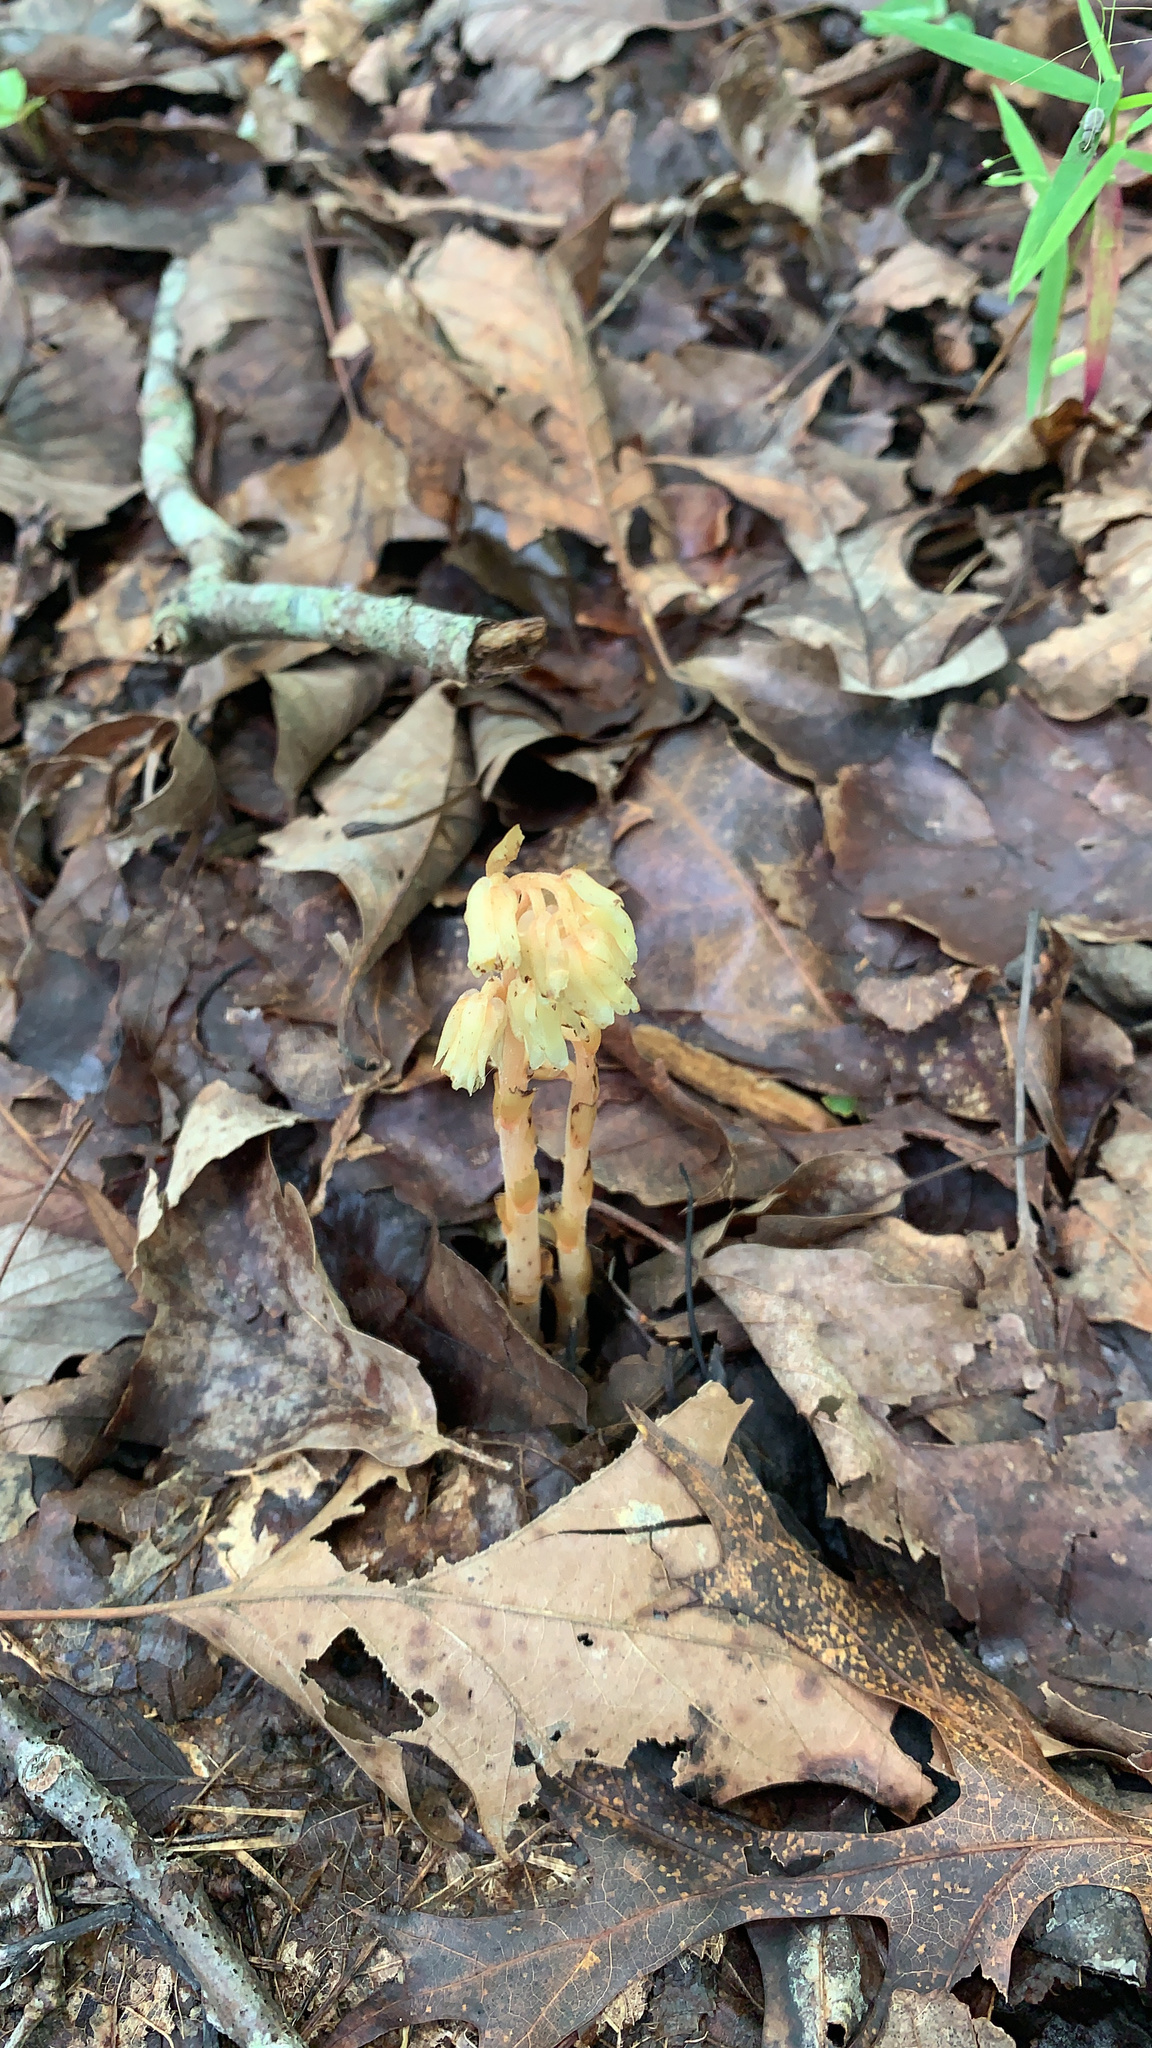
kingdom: Plantae
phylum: Tracheophyta
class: Magnoliopsida
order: Ericales
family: Ericaceae
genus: Hypopitys
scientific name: Hypopitys monotropa
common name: Yellow bird's-nest
